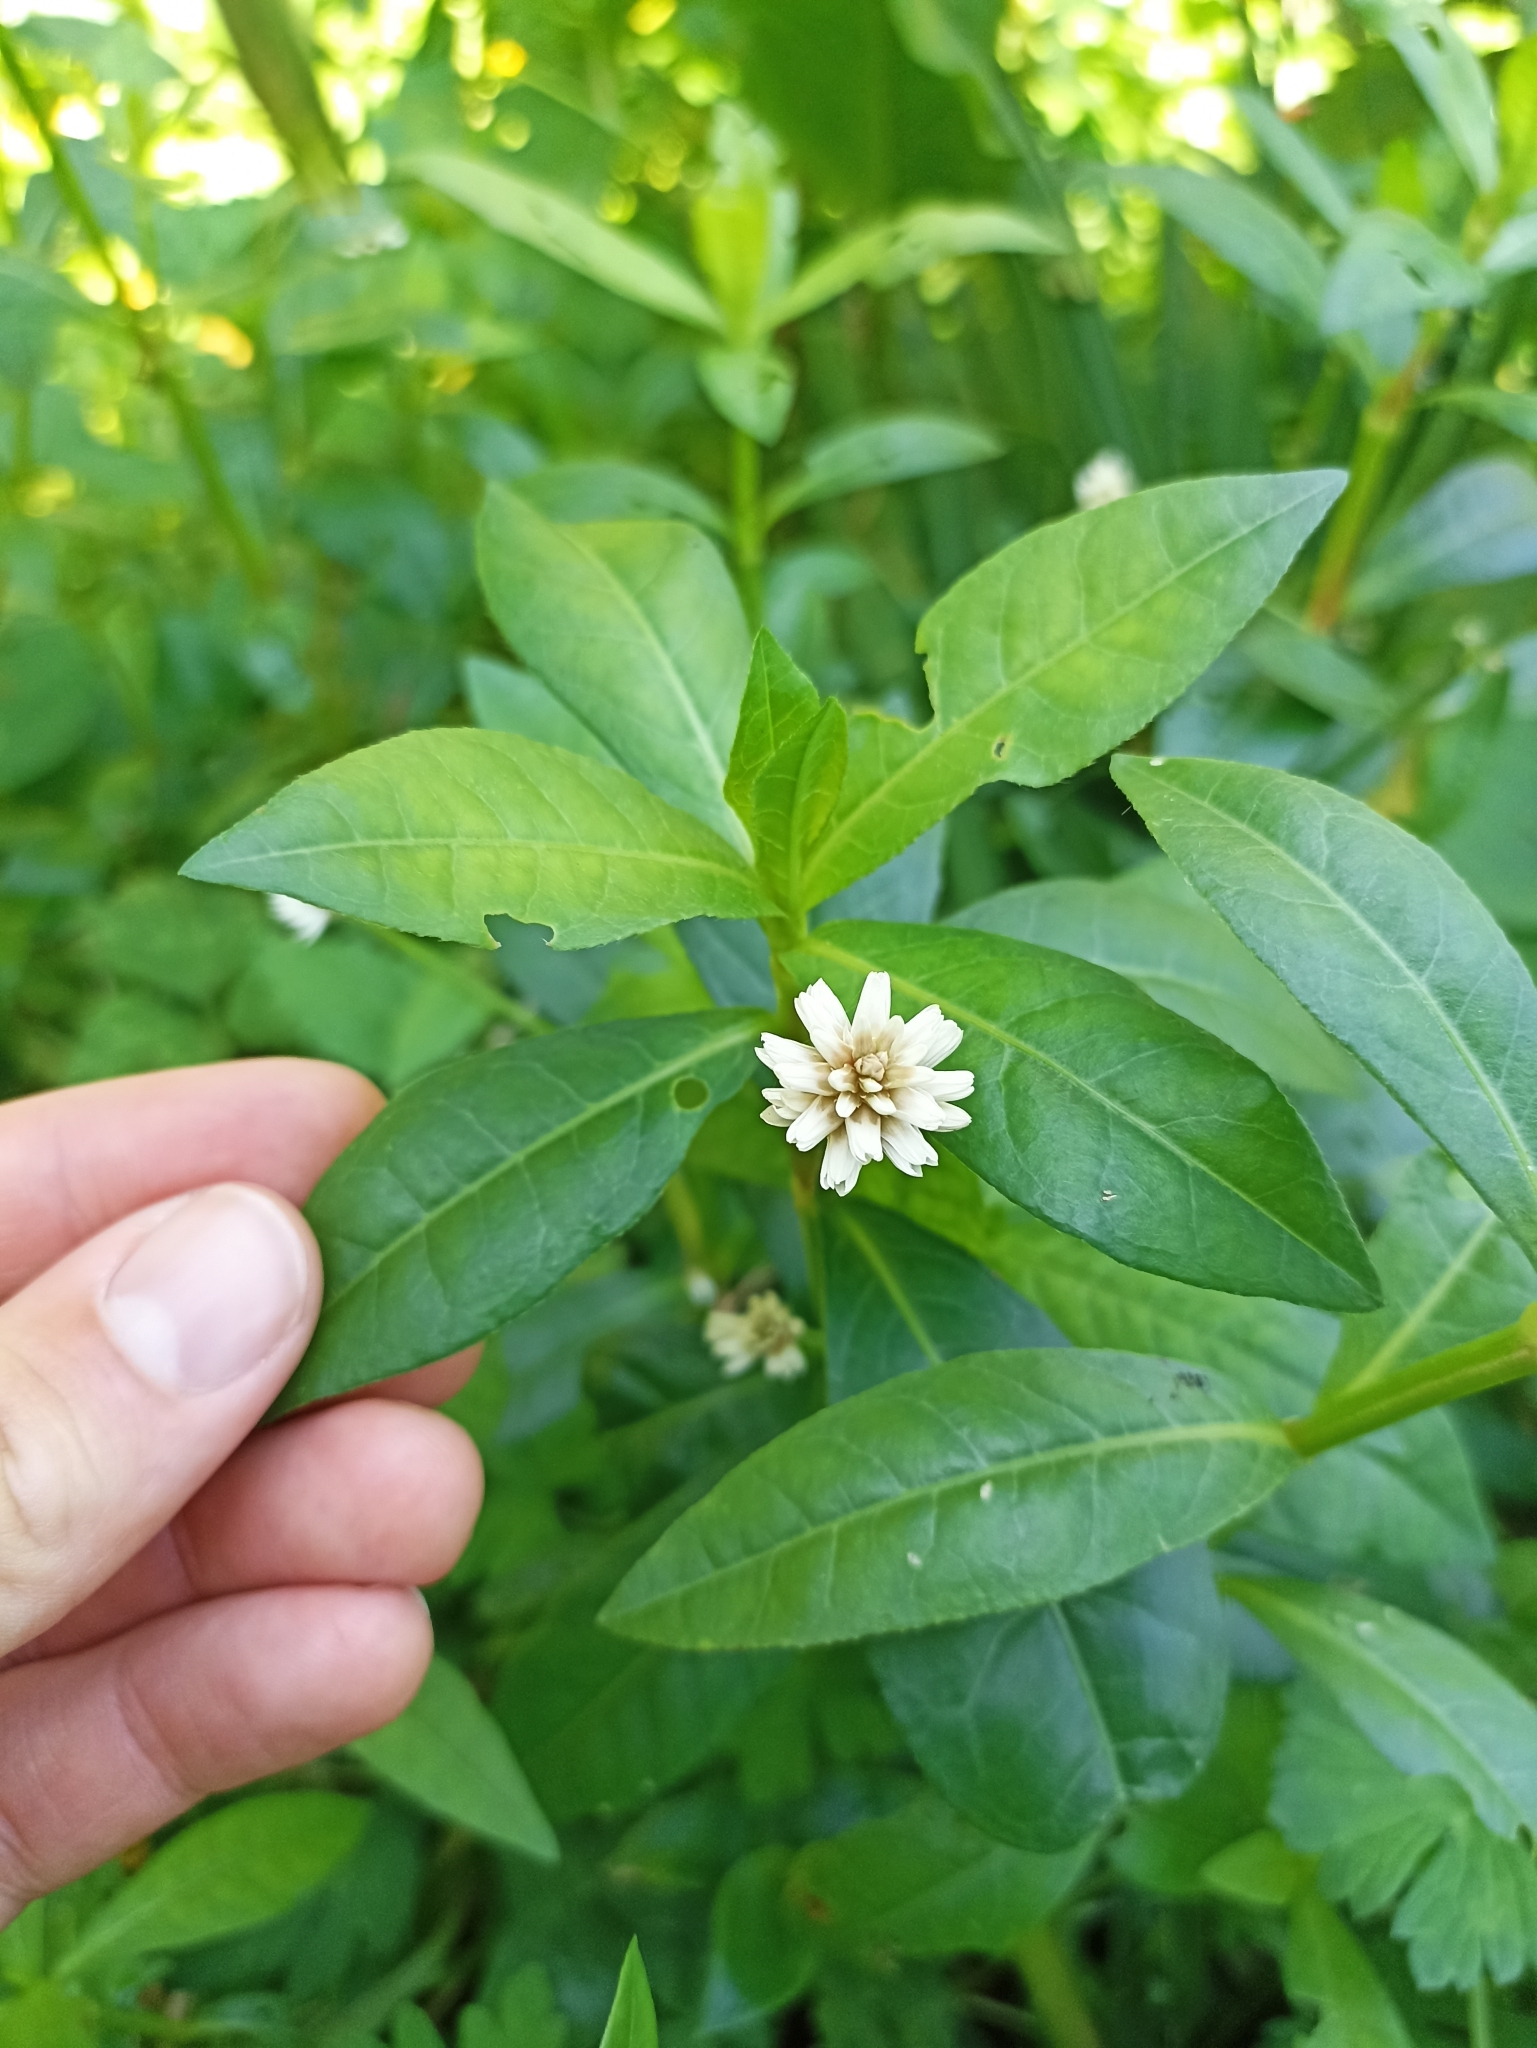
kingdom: Plantae
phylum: Tracheophyta
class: Magnoliopsida
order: Caryophyllales
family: Amaranthaceae
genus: Alternanthera
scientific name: Alternanthera philoxeroides
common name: Alligatorweed
